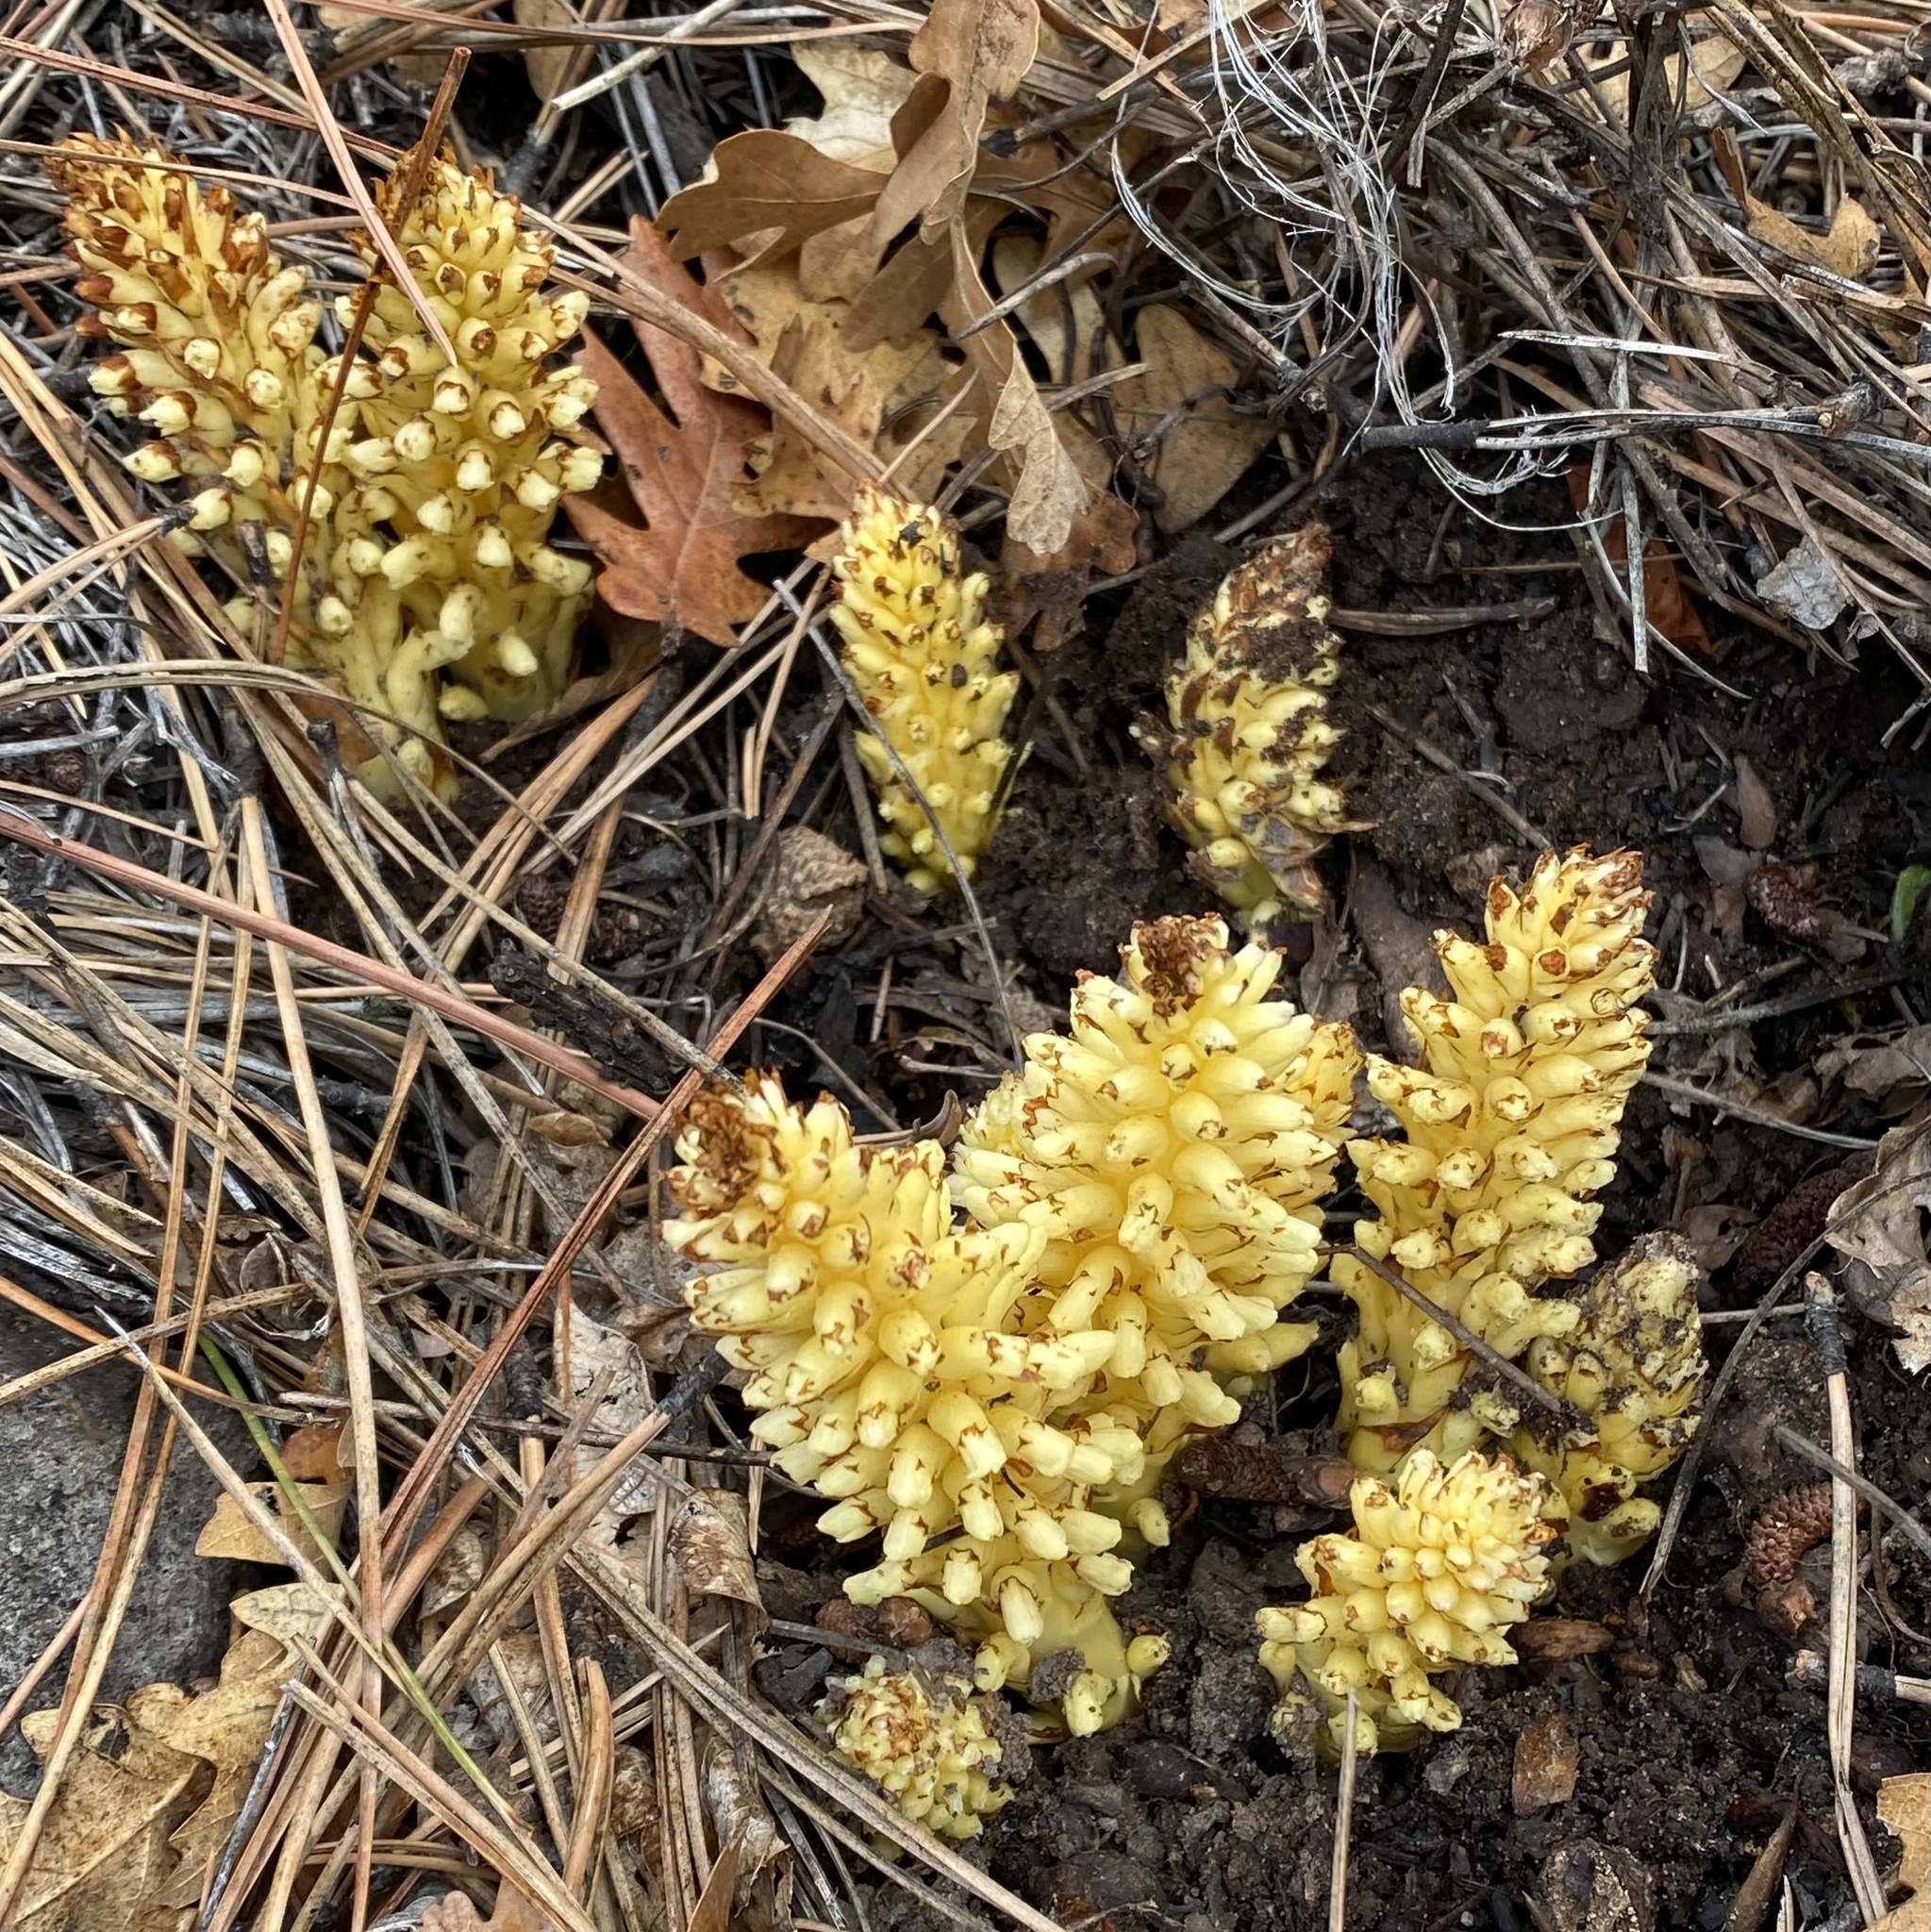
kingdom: Plantae
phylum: Tracheophyta
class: Magnoliopsida
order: Lamiales
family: Orobanchaceae
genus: Conopholis
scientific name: Conopholis alpina
